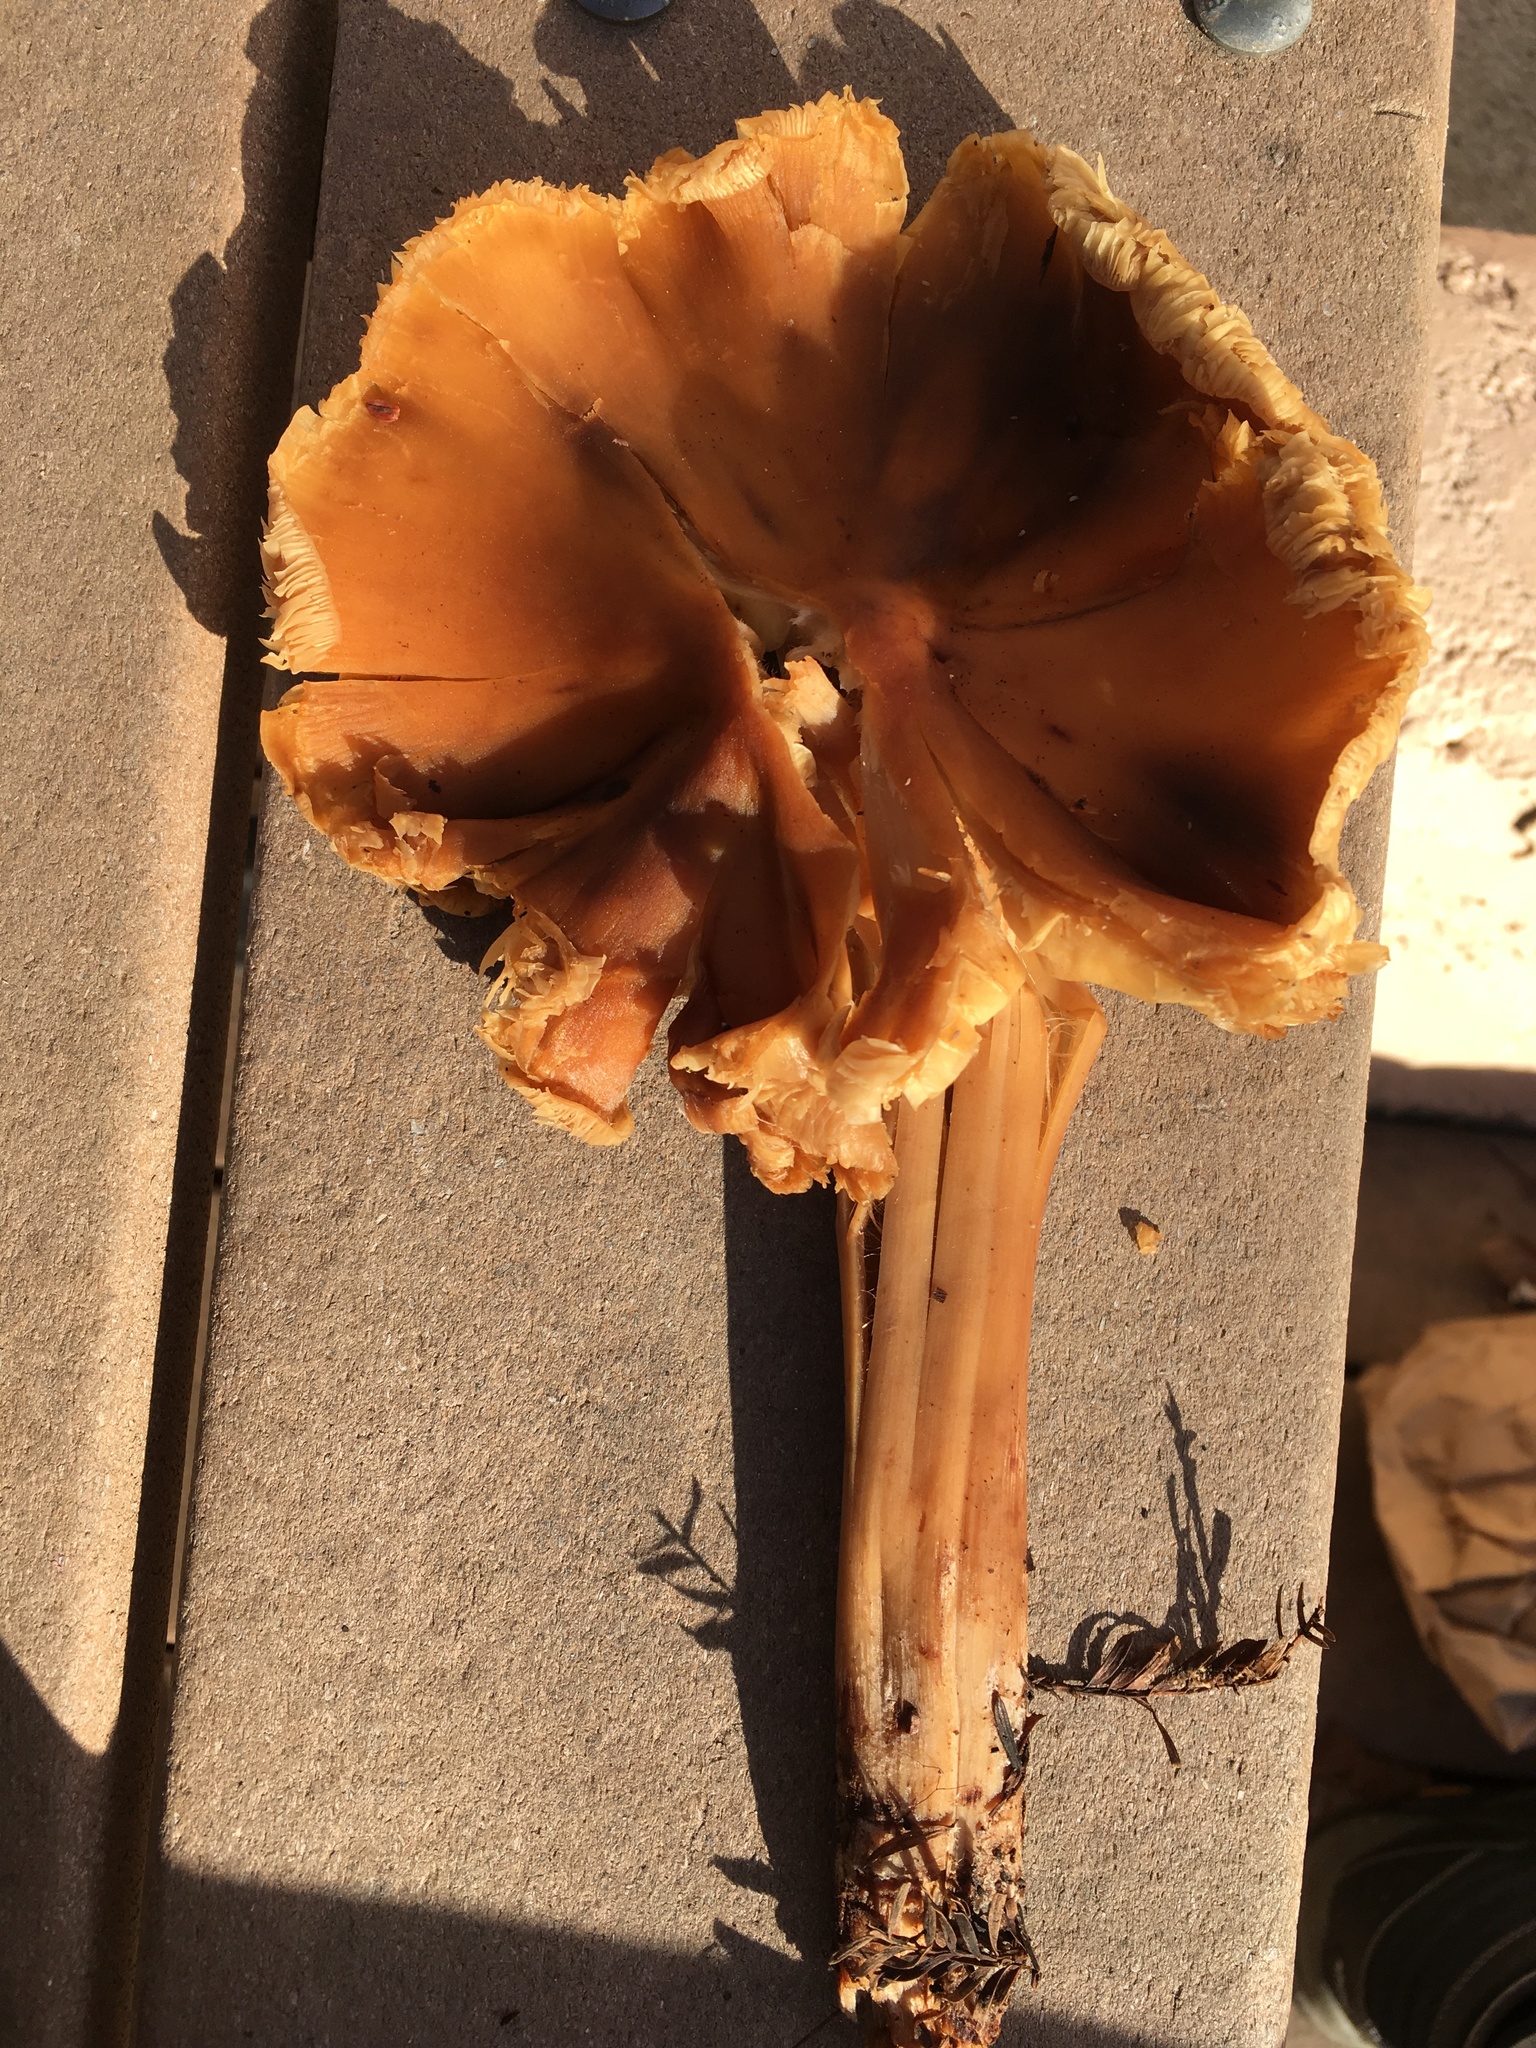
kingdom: Fungi
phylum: Basidiomycota
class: Agaricomycetes
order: Agaricales
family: Tricholomataceae
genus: Caulorhiza
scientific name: Caulorhiza umbonata
